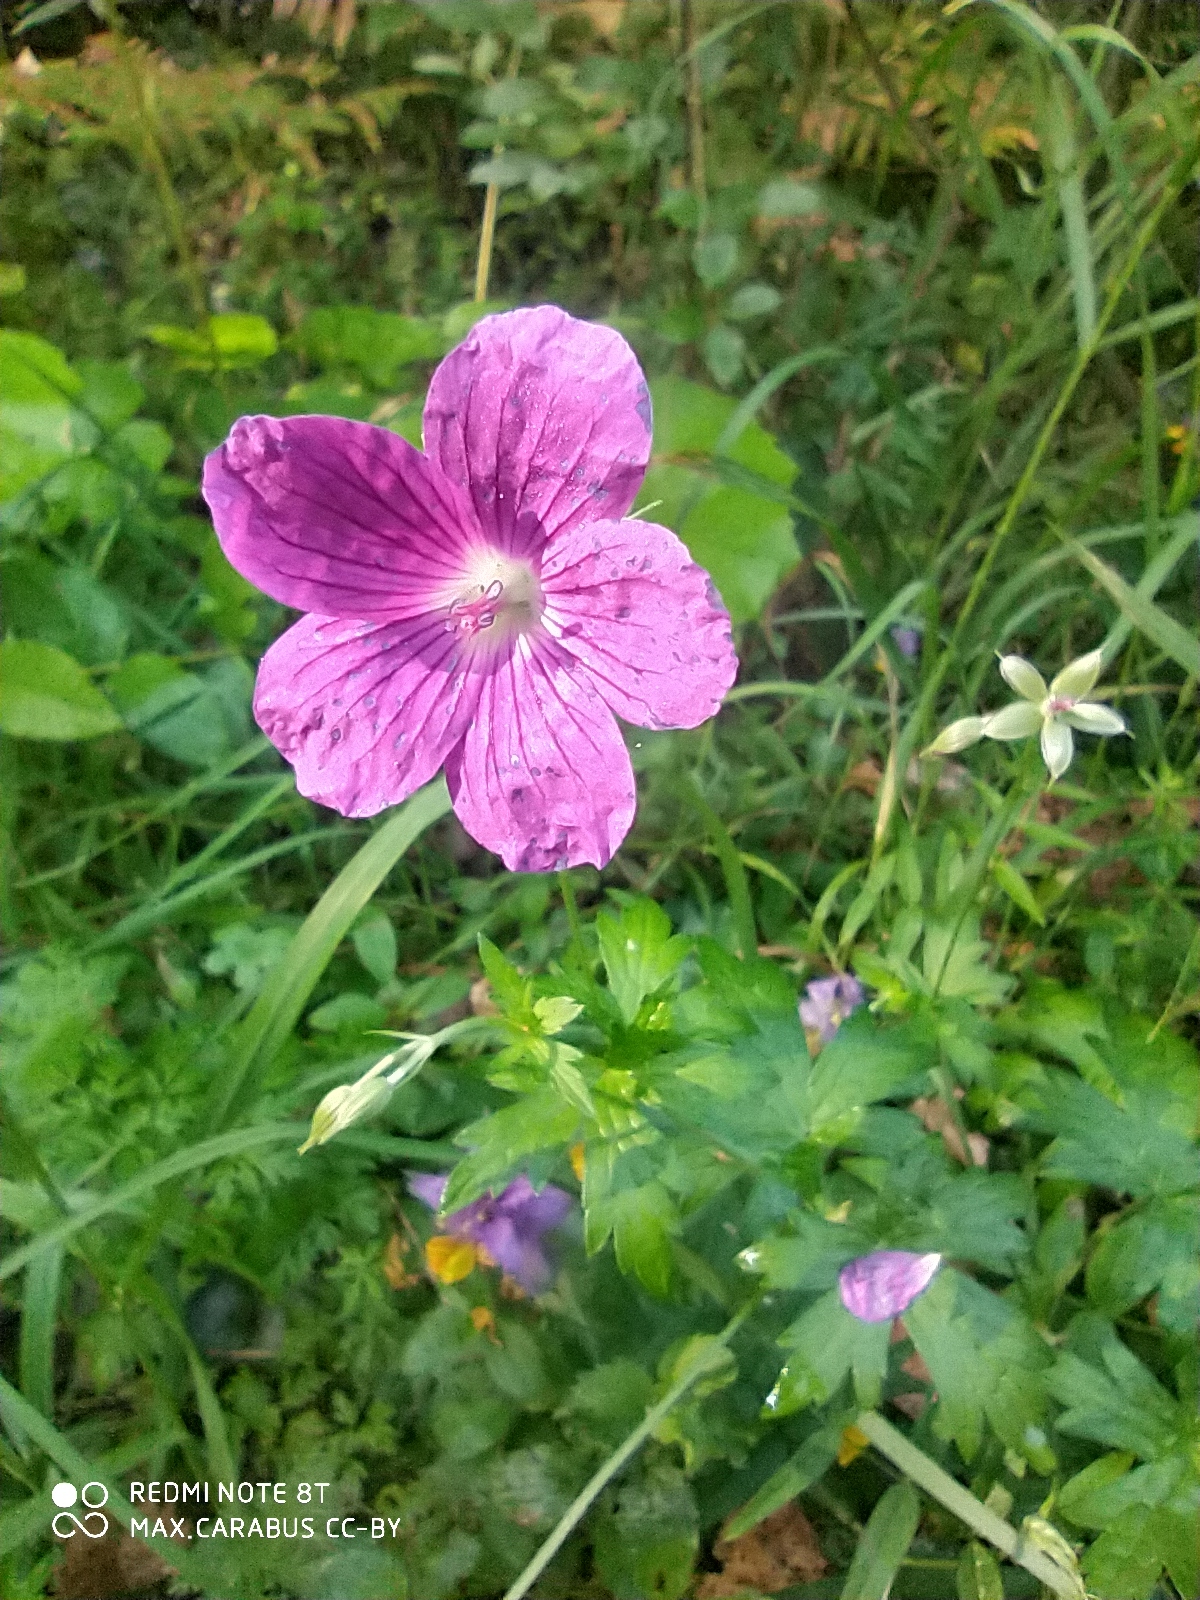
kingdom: Plantae
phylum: Tracheophyta
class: Magnoliopsida
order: Geraniales
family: Geraniaceae
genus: Geranium
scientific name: Geranium palustre
